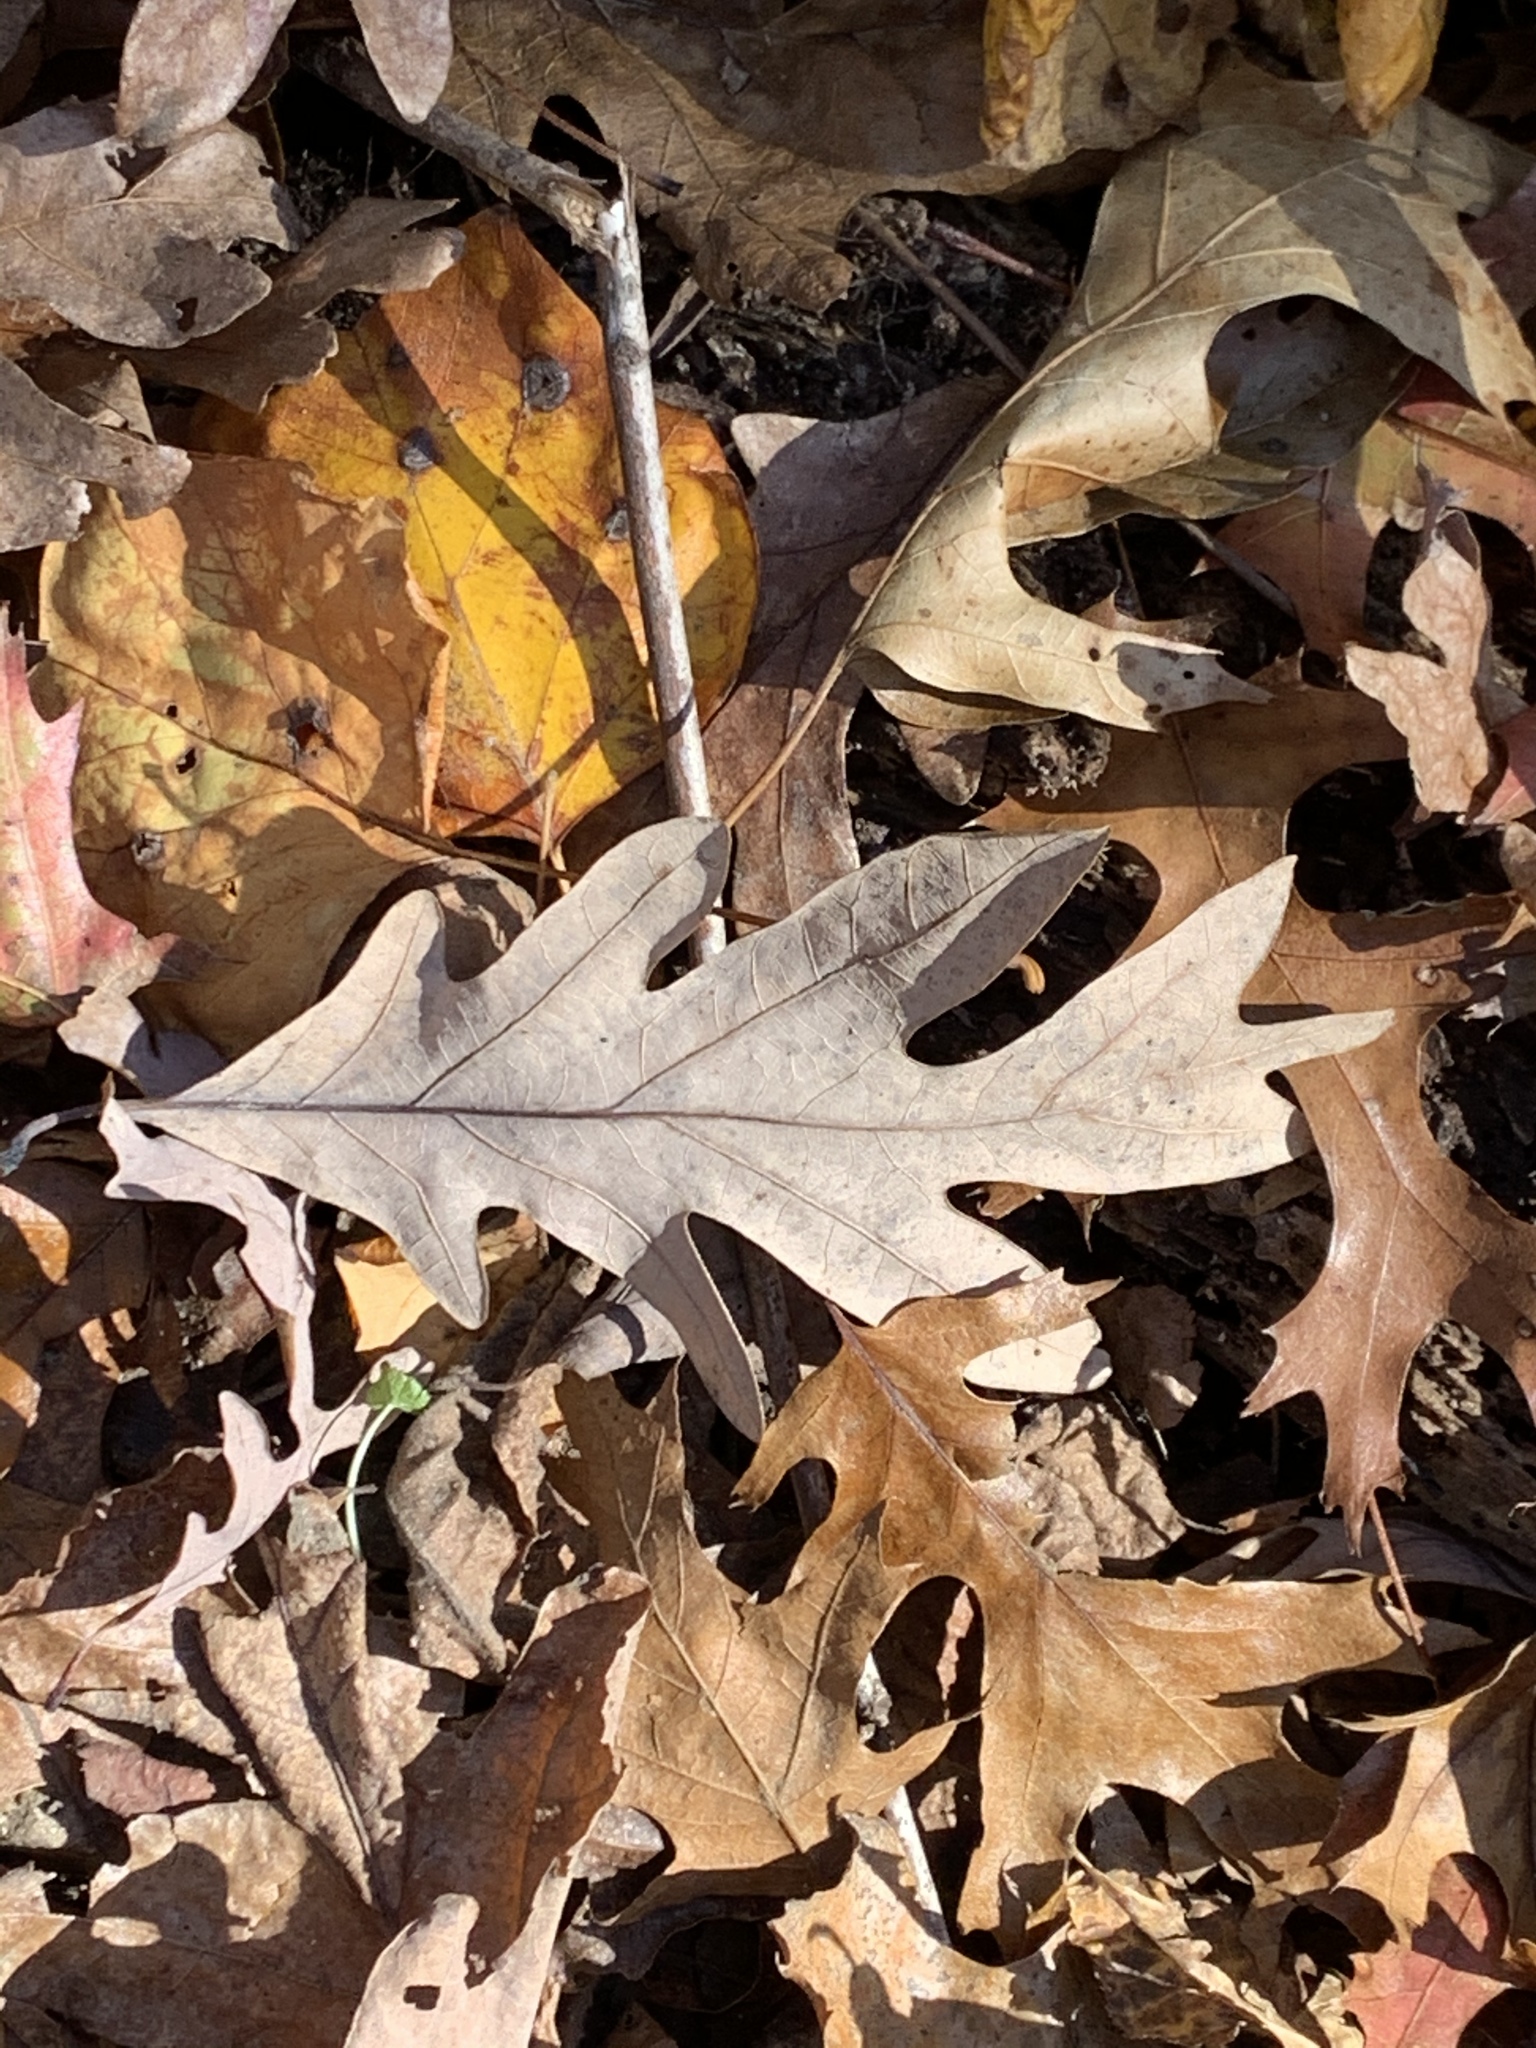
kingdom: Plantae
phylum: Tracheophyta
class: Magnoliopsida
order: Fagales
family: Fagaceae
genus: Quercus
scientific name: Quercus alba
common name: White oak
